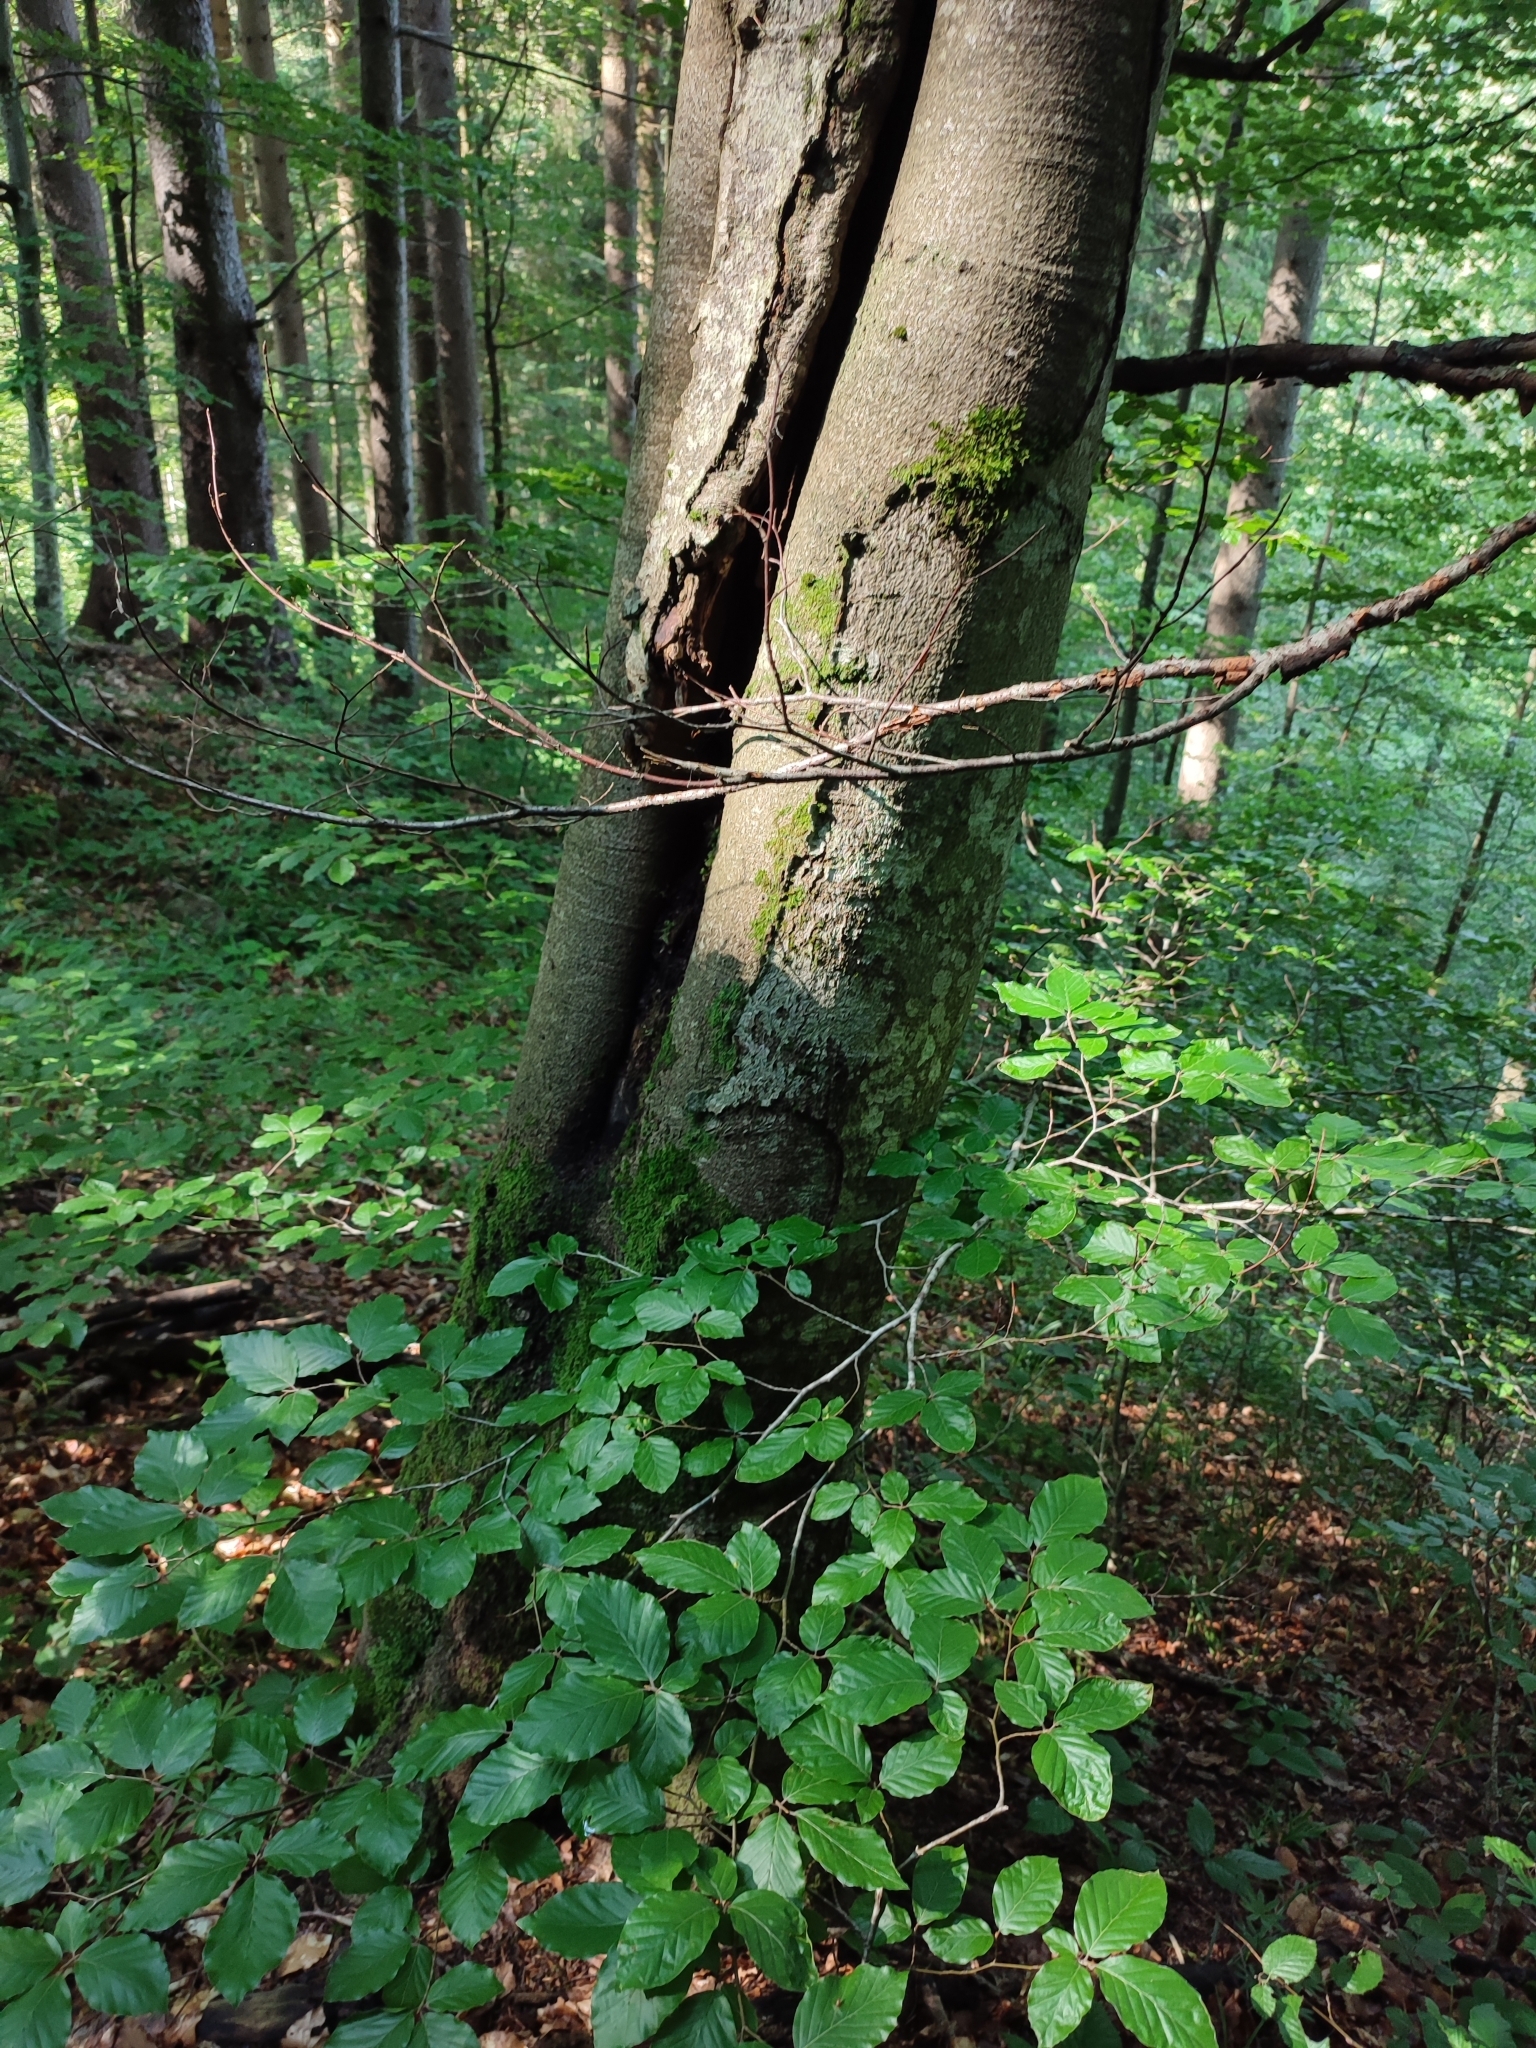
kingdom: Plantae
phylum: Tracheophyta
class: Magnoliopsida
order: Fagales
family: Fagaceae
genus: Fagus
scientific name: Fagus sylvatica
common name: Beech
